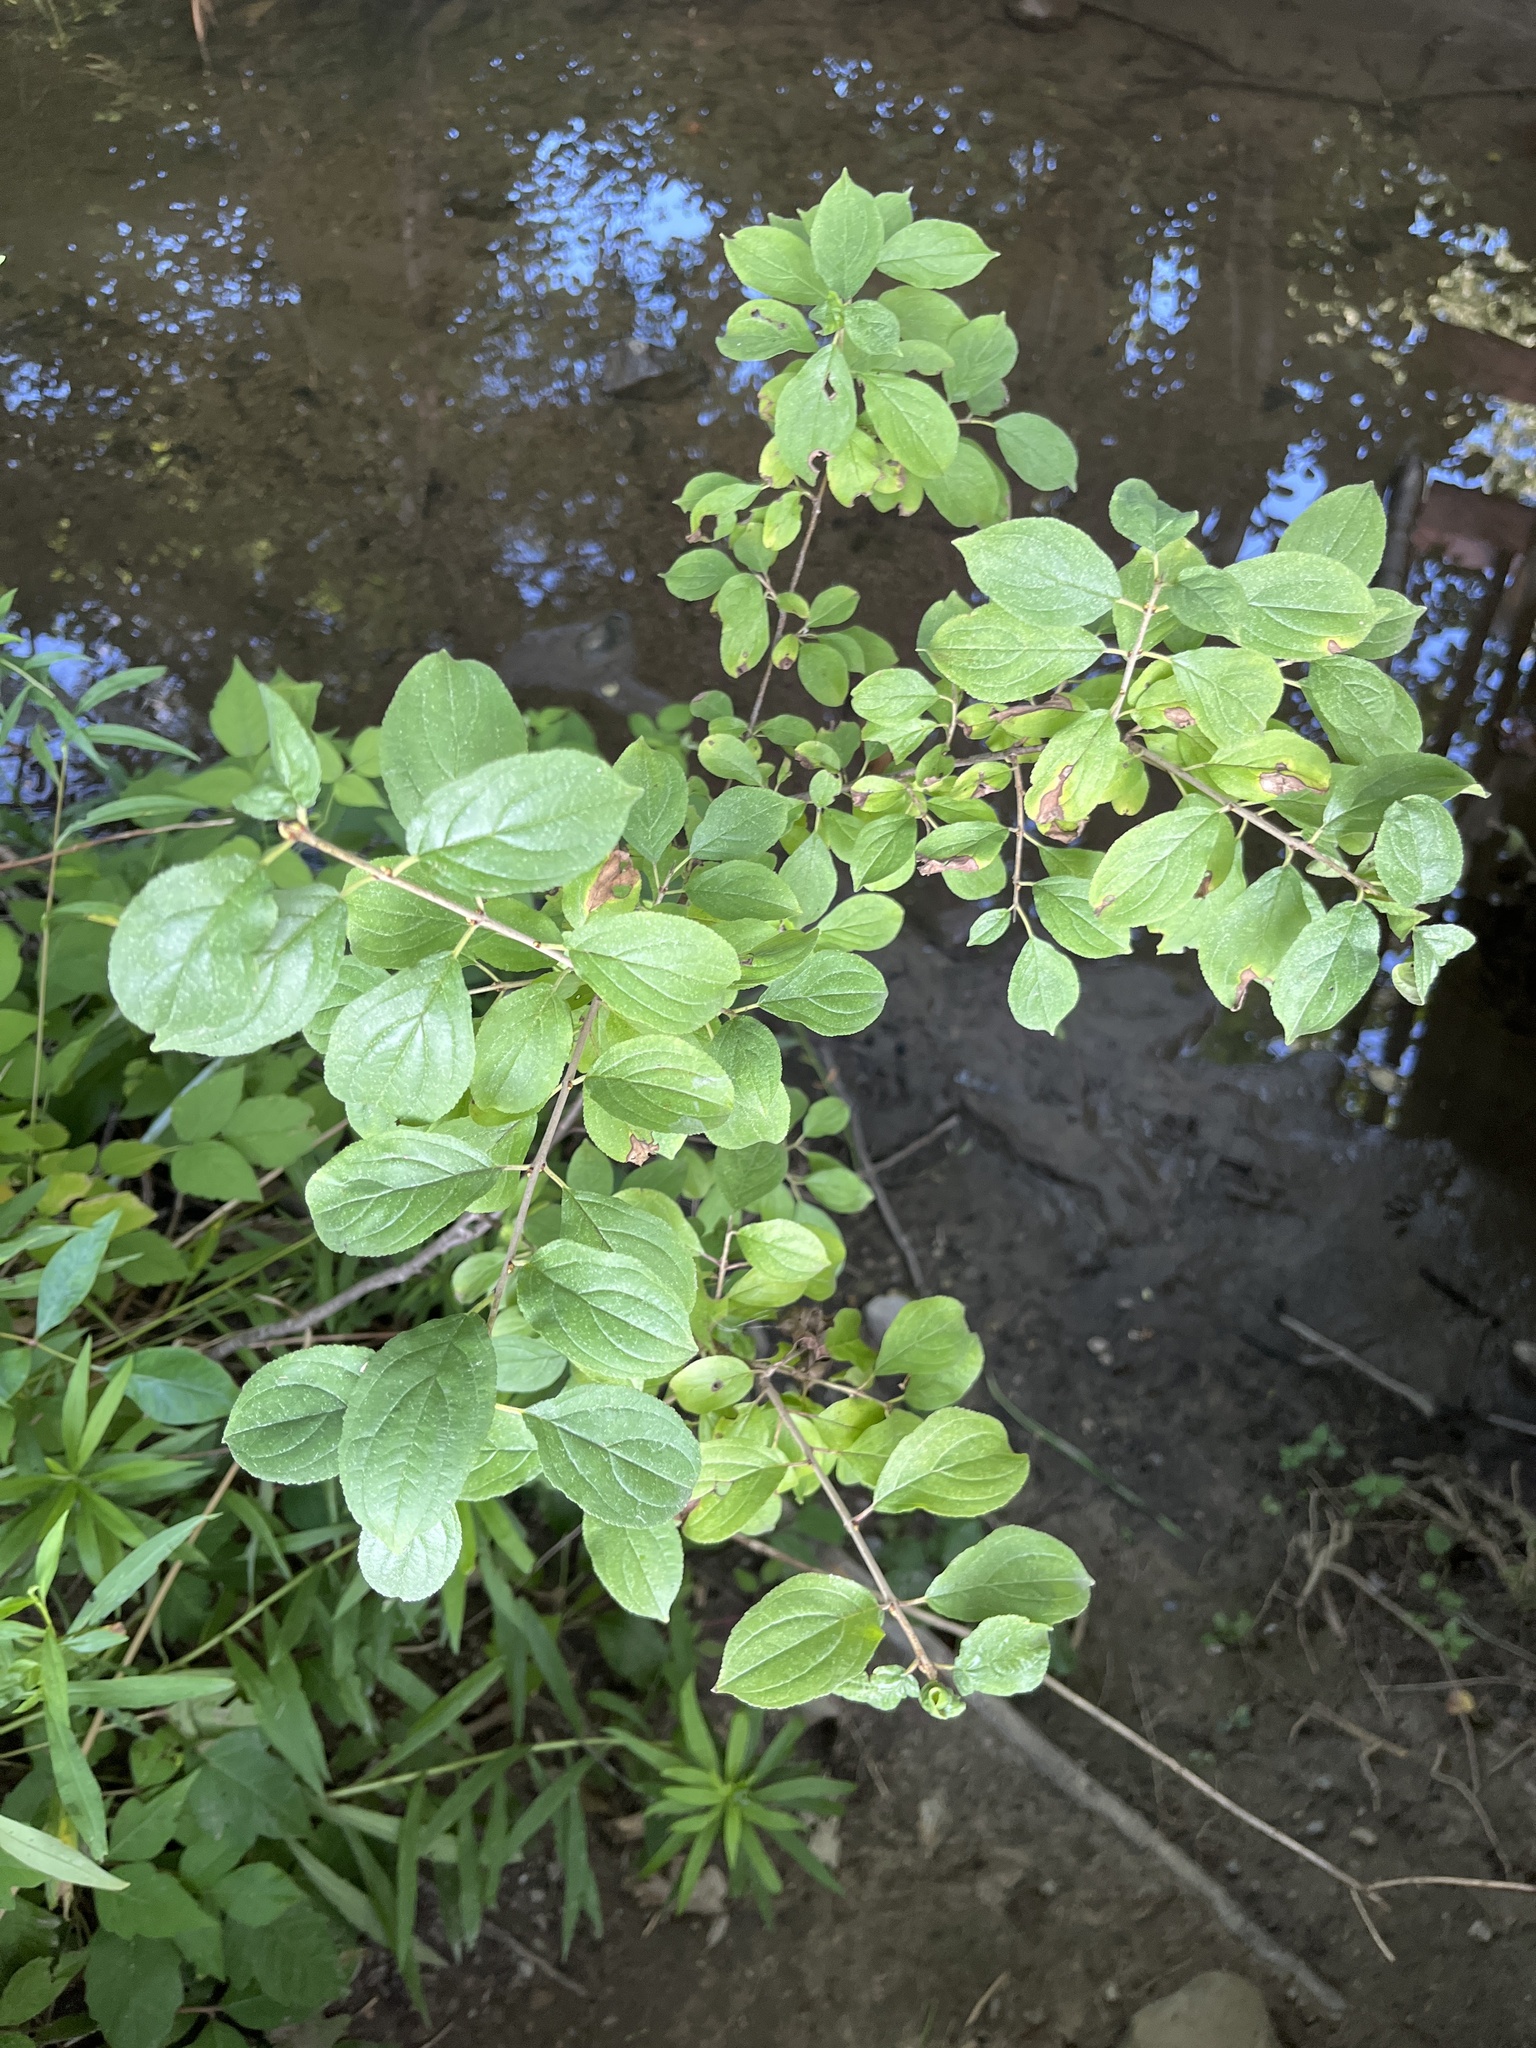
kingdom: Plantae
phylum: Tracheophyta
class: Magnoliopsida
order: Rosales
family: Rhamnaceae
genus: Rhamnus
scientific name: Rhamnus cathartica
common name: Common buckthorn
